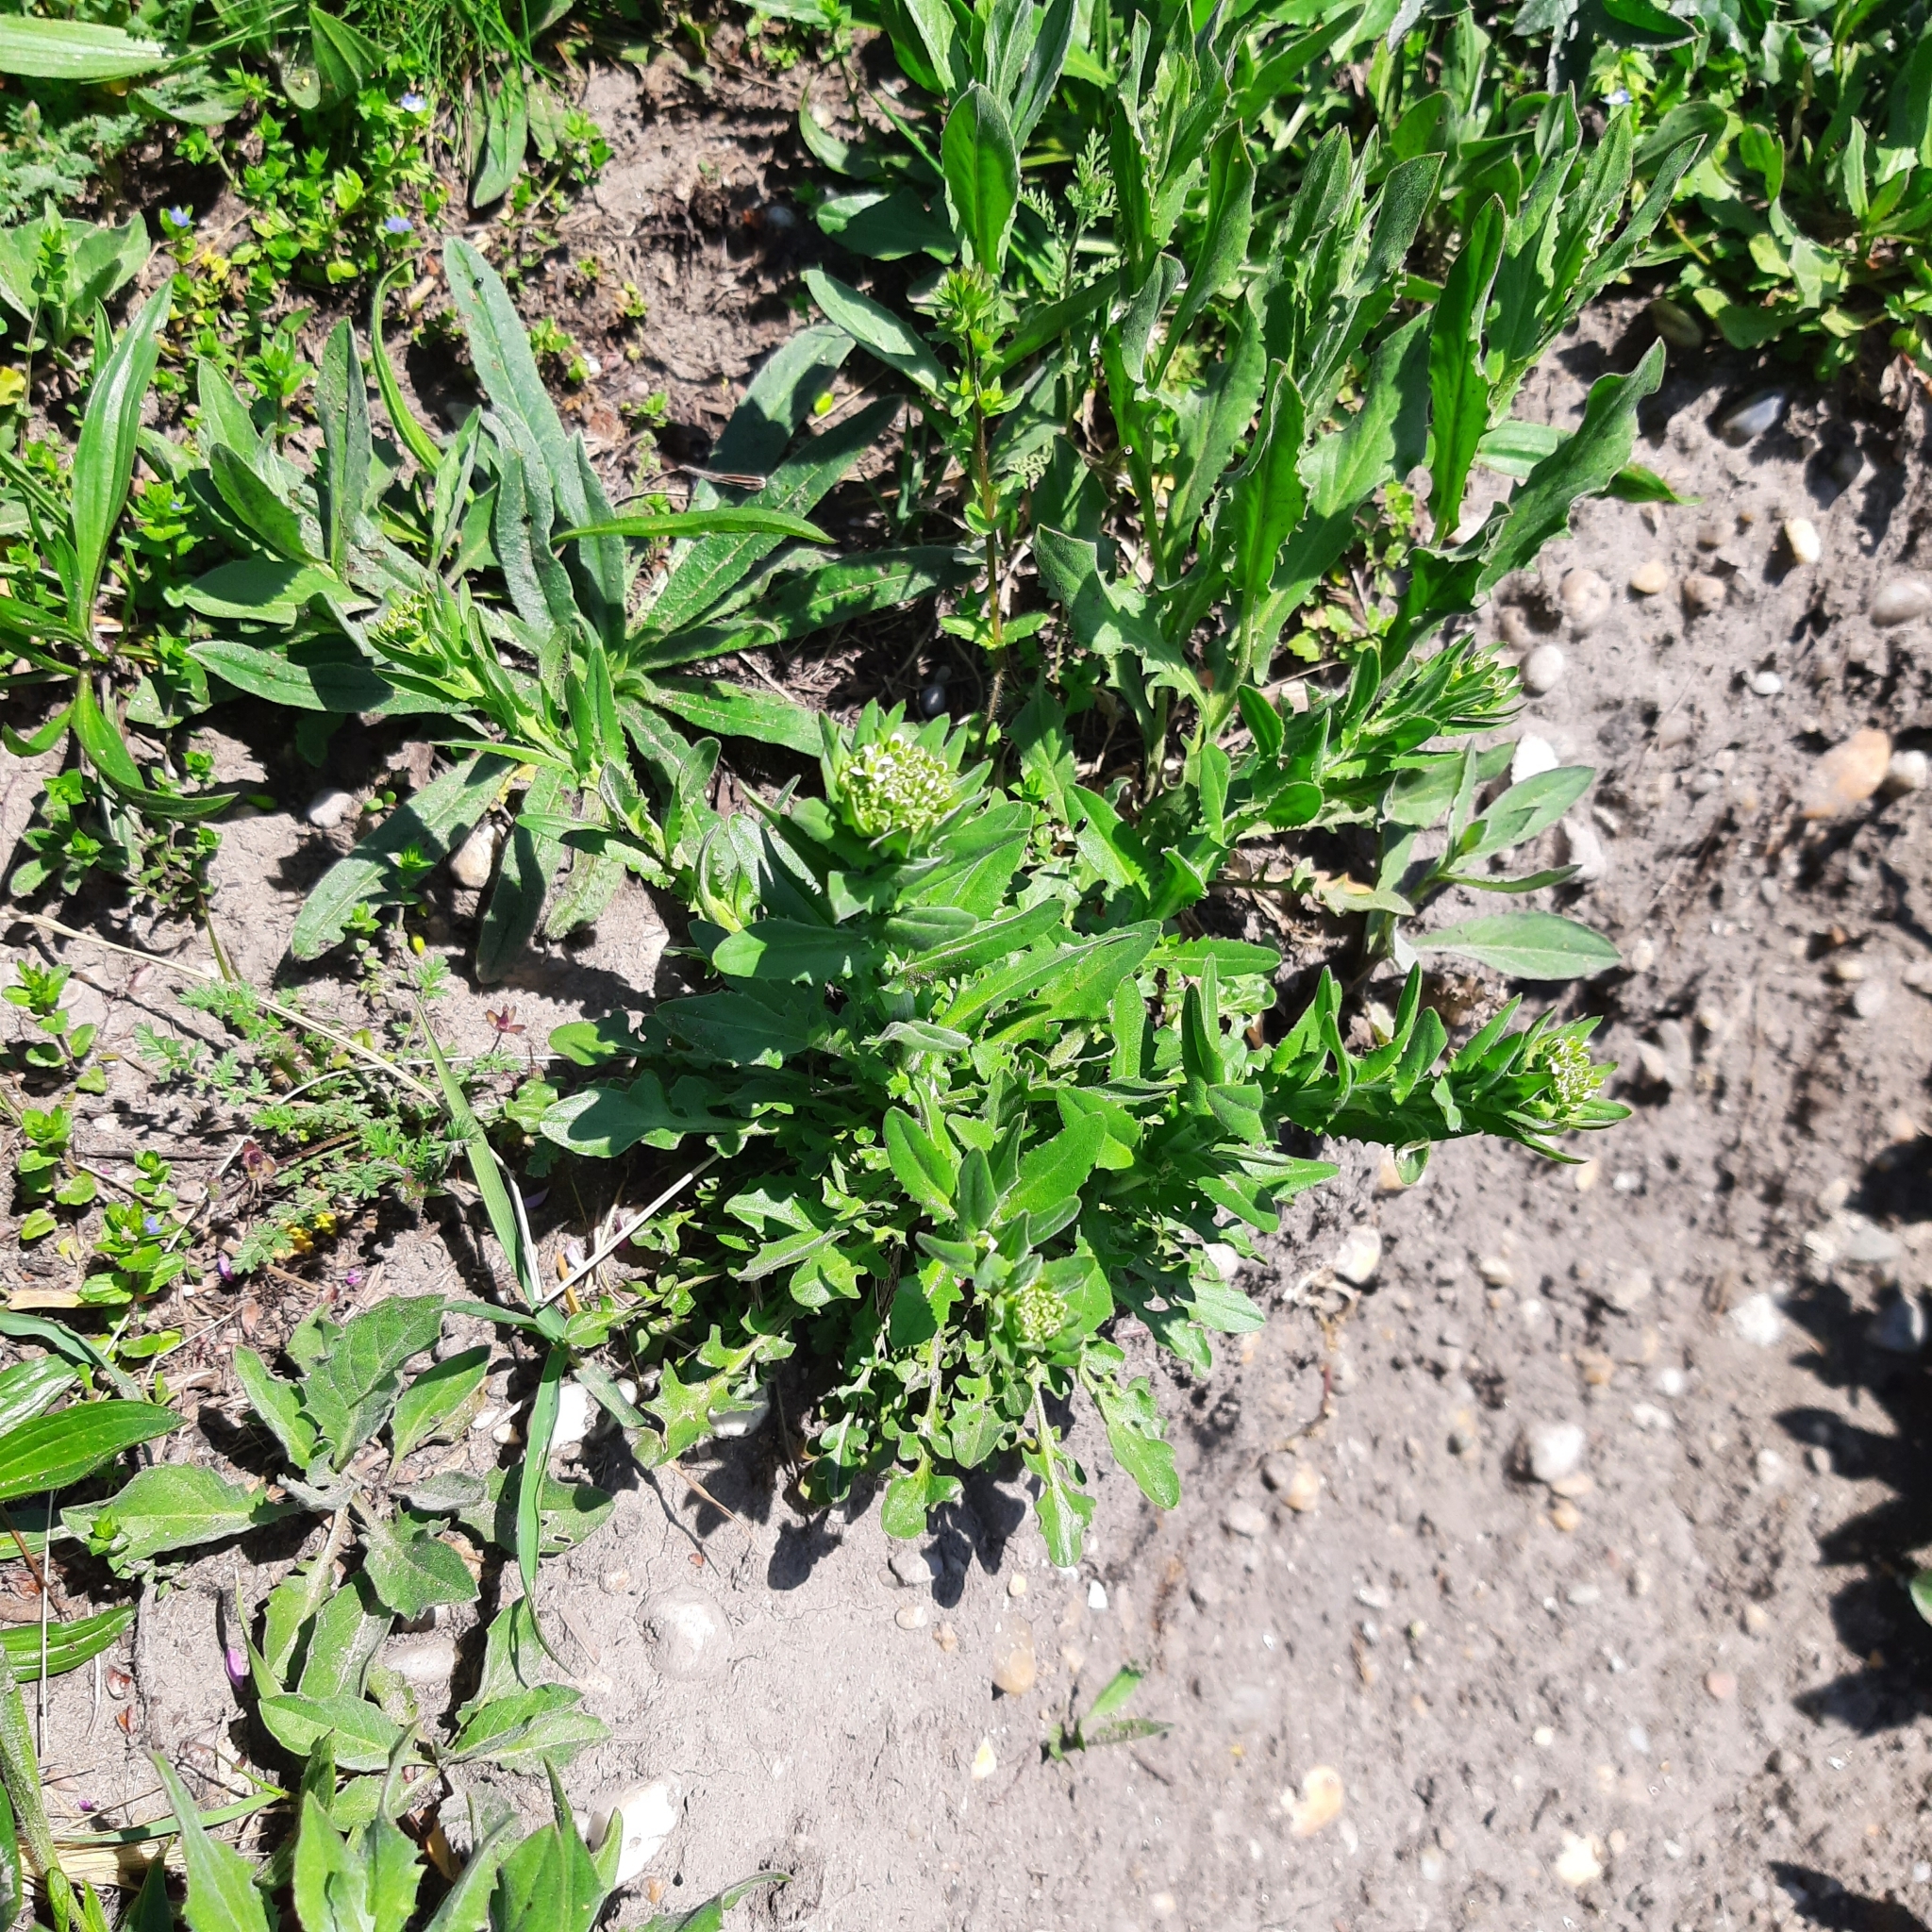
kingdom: Plantae
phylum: Tracheophyta
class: Magnoliopsida
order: Brassicales
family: Brassicaceae
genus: Lepidium
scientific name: Lepidium draba
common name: Hoary cress
